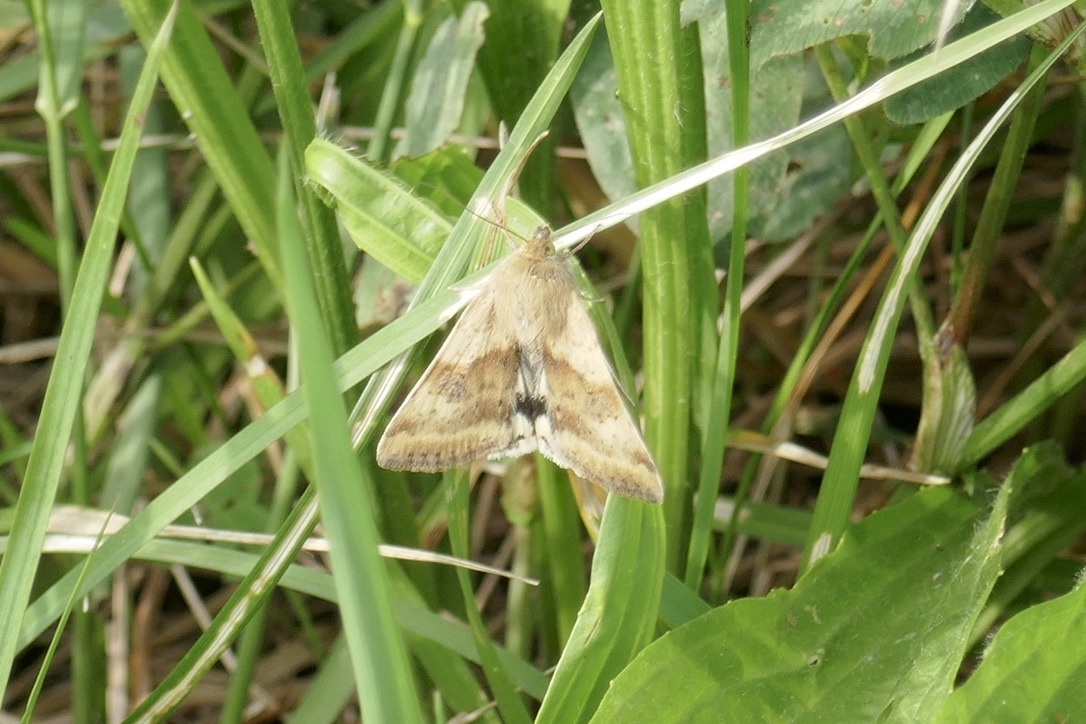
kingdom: Animalia
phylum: Arthropoda
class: Insecta
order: Lepidoptera
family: Noctuidae
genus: Heliothis
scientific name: Heliothis adaucta
